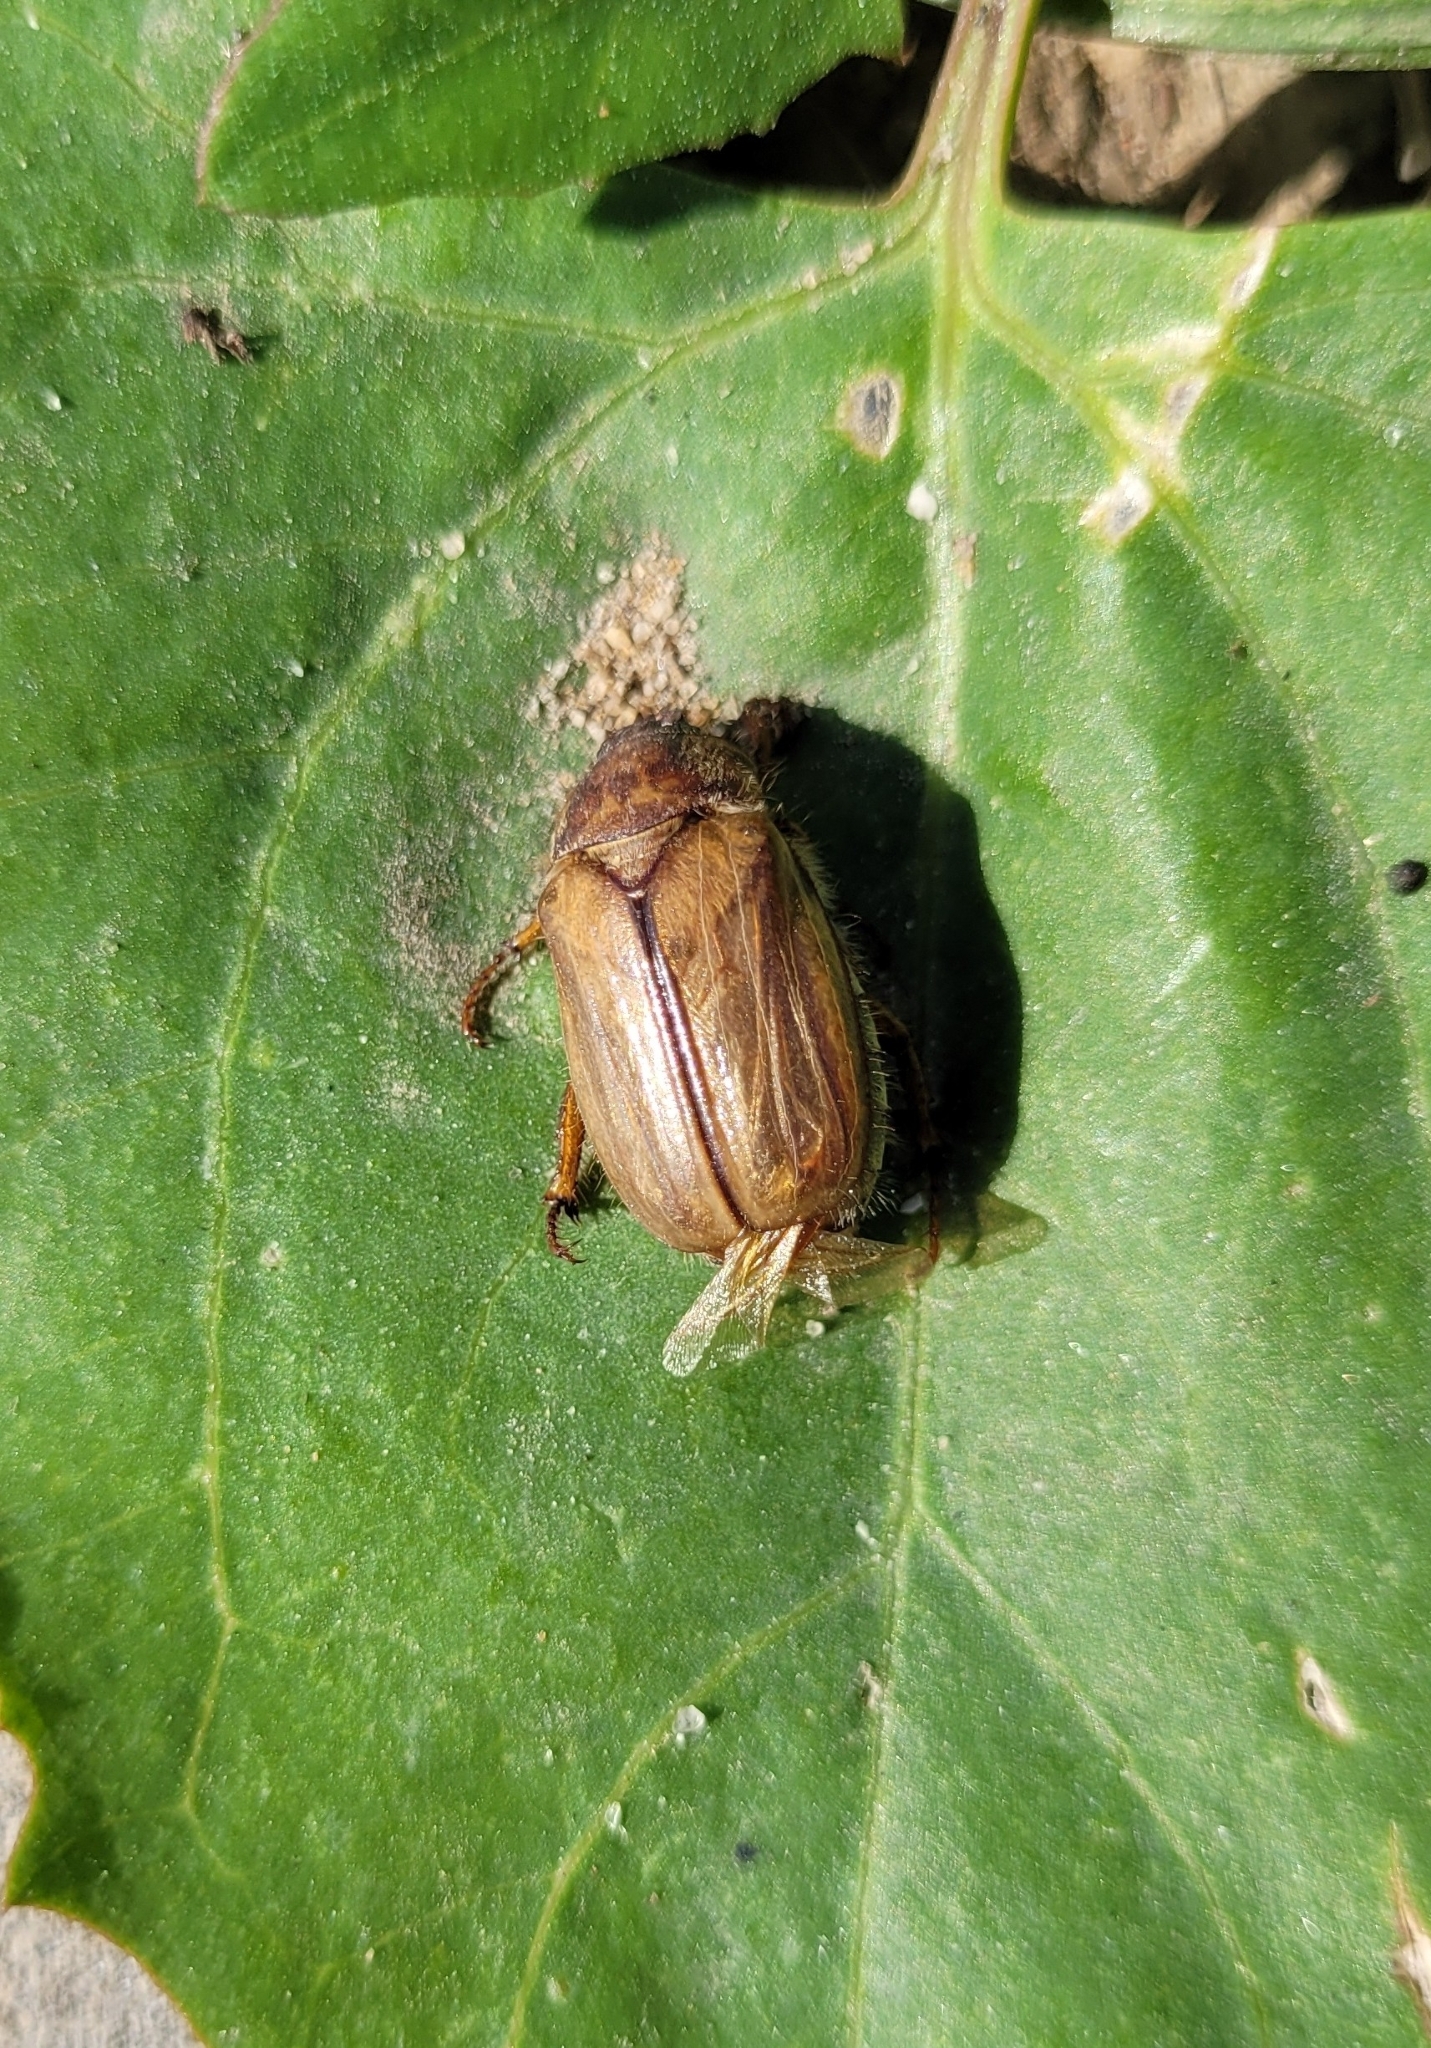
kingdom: Animalia
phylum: Arthropoda
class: Insecta
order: Coleoptera
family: Scarabaeidae
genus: Amphimallon
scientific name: Amphimallon solstitiale
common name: Summer chafer
